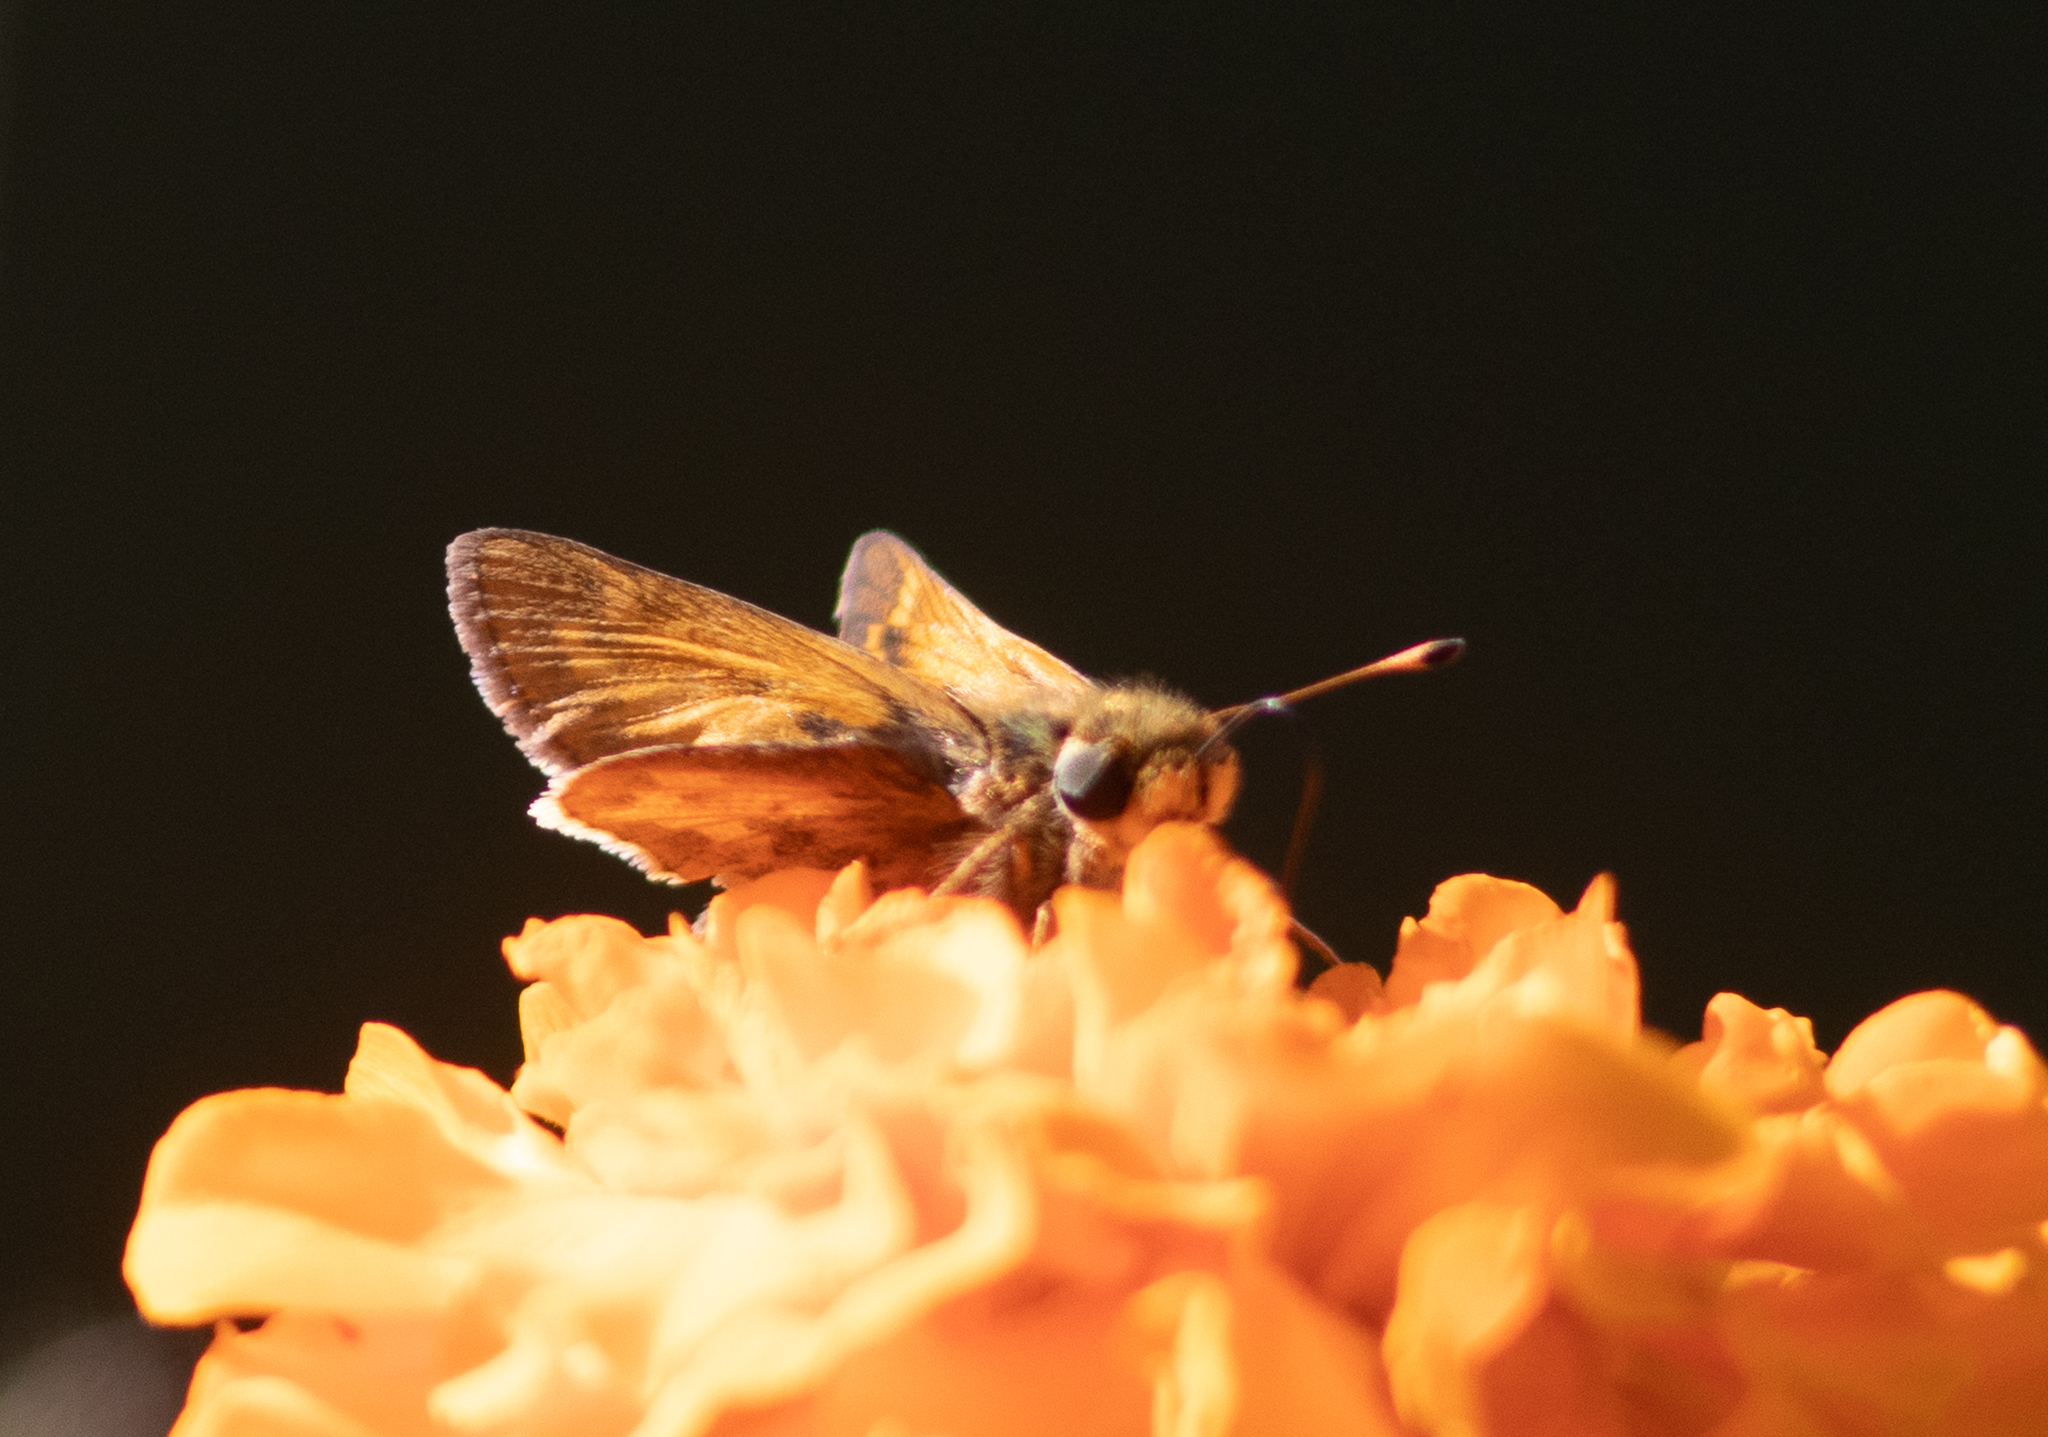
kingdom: Animalia
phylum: Arthropoda
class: Insecta
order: Lepidoptera
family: Hesperiidae
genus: Atalopedes
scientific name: Atalopedes
